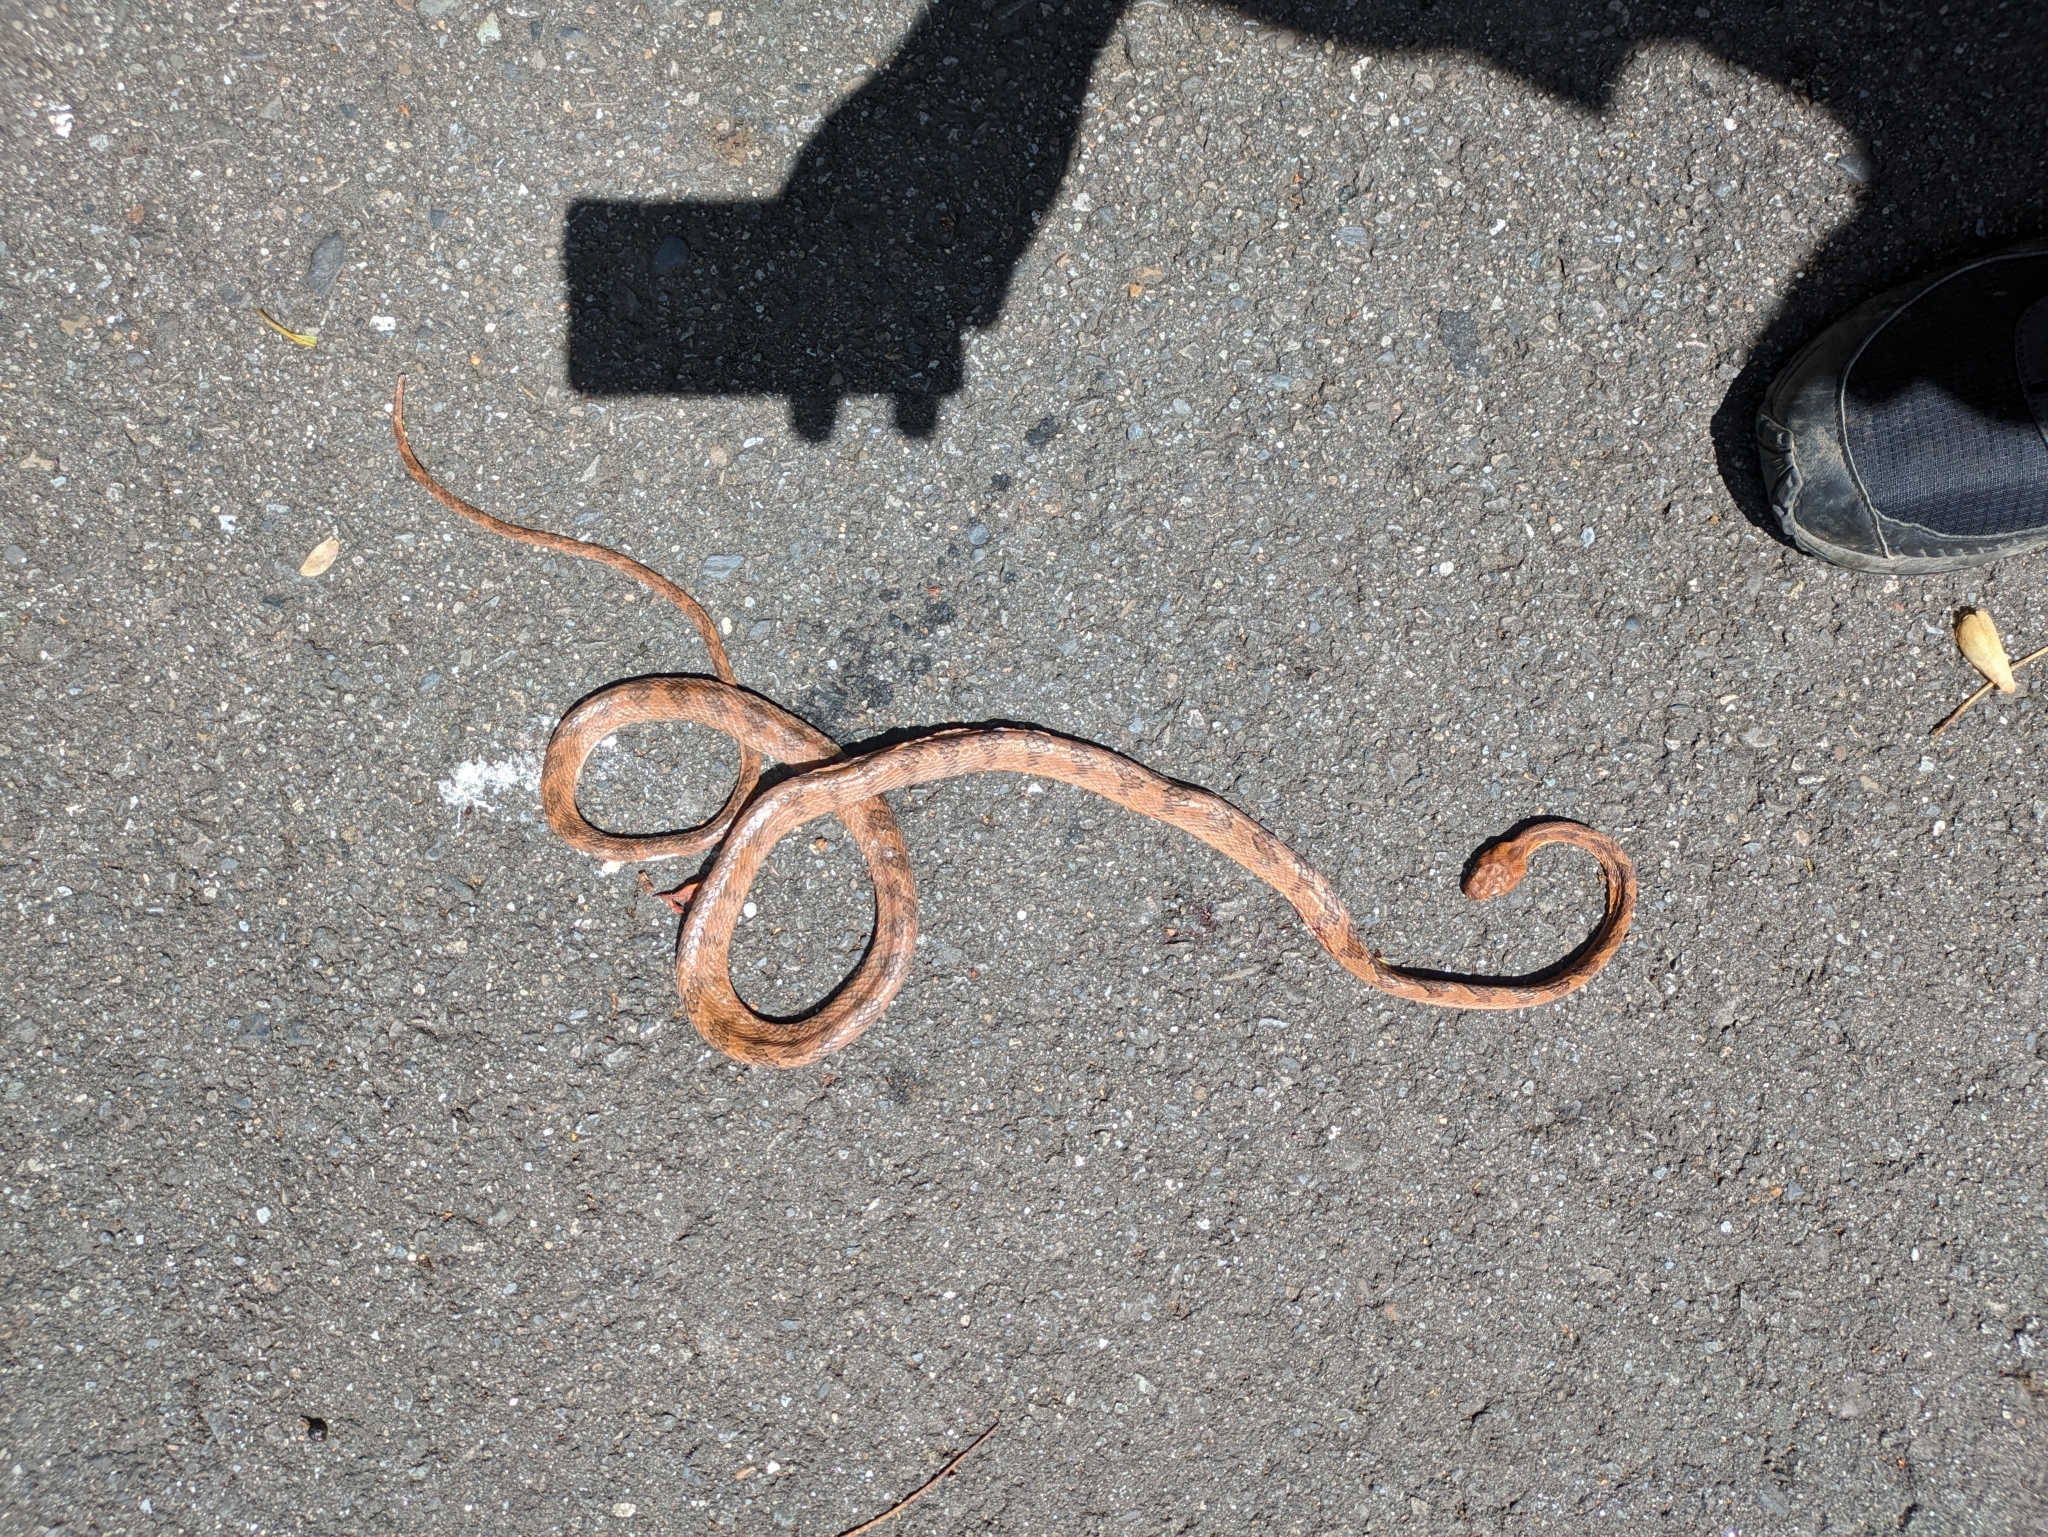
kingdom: Animalia
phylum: Chordata
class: Squamata
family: Colubridae
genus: Boiga
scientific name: Boiga kraepelini
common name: Kelung cat snake
